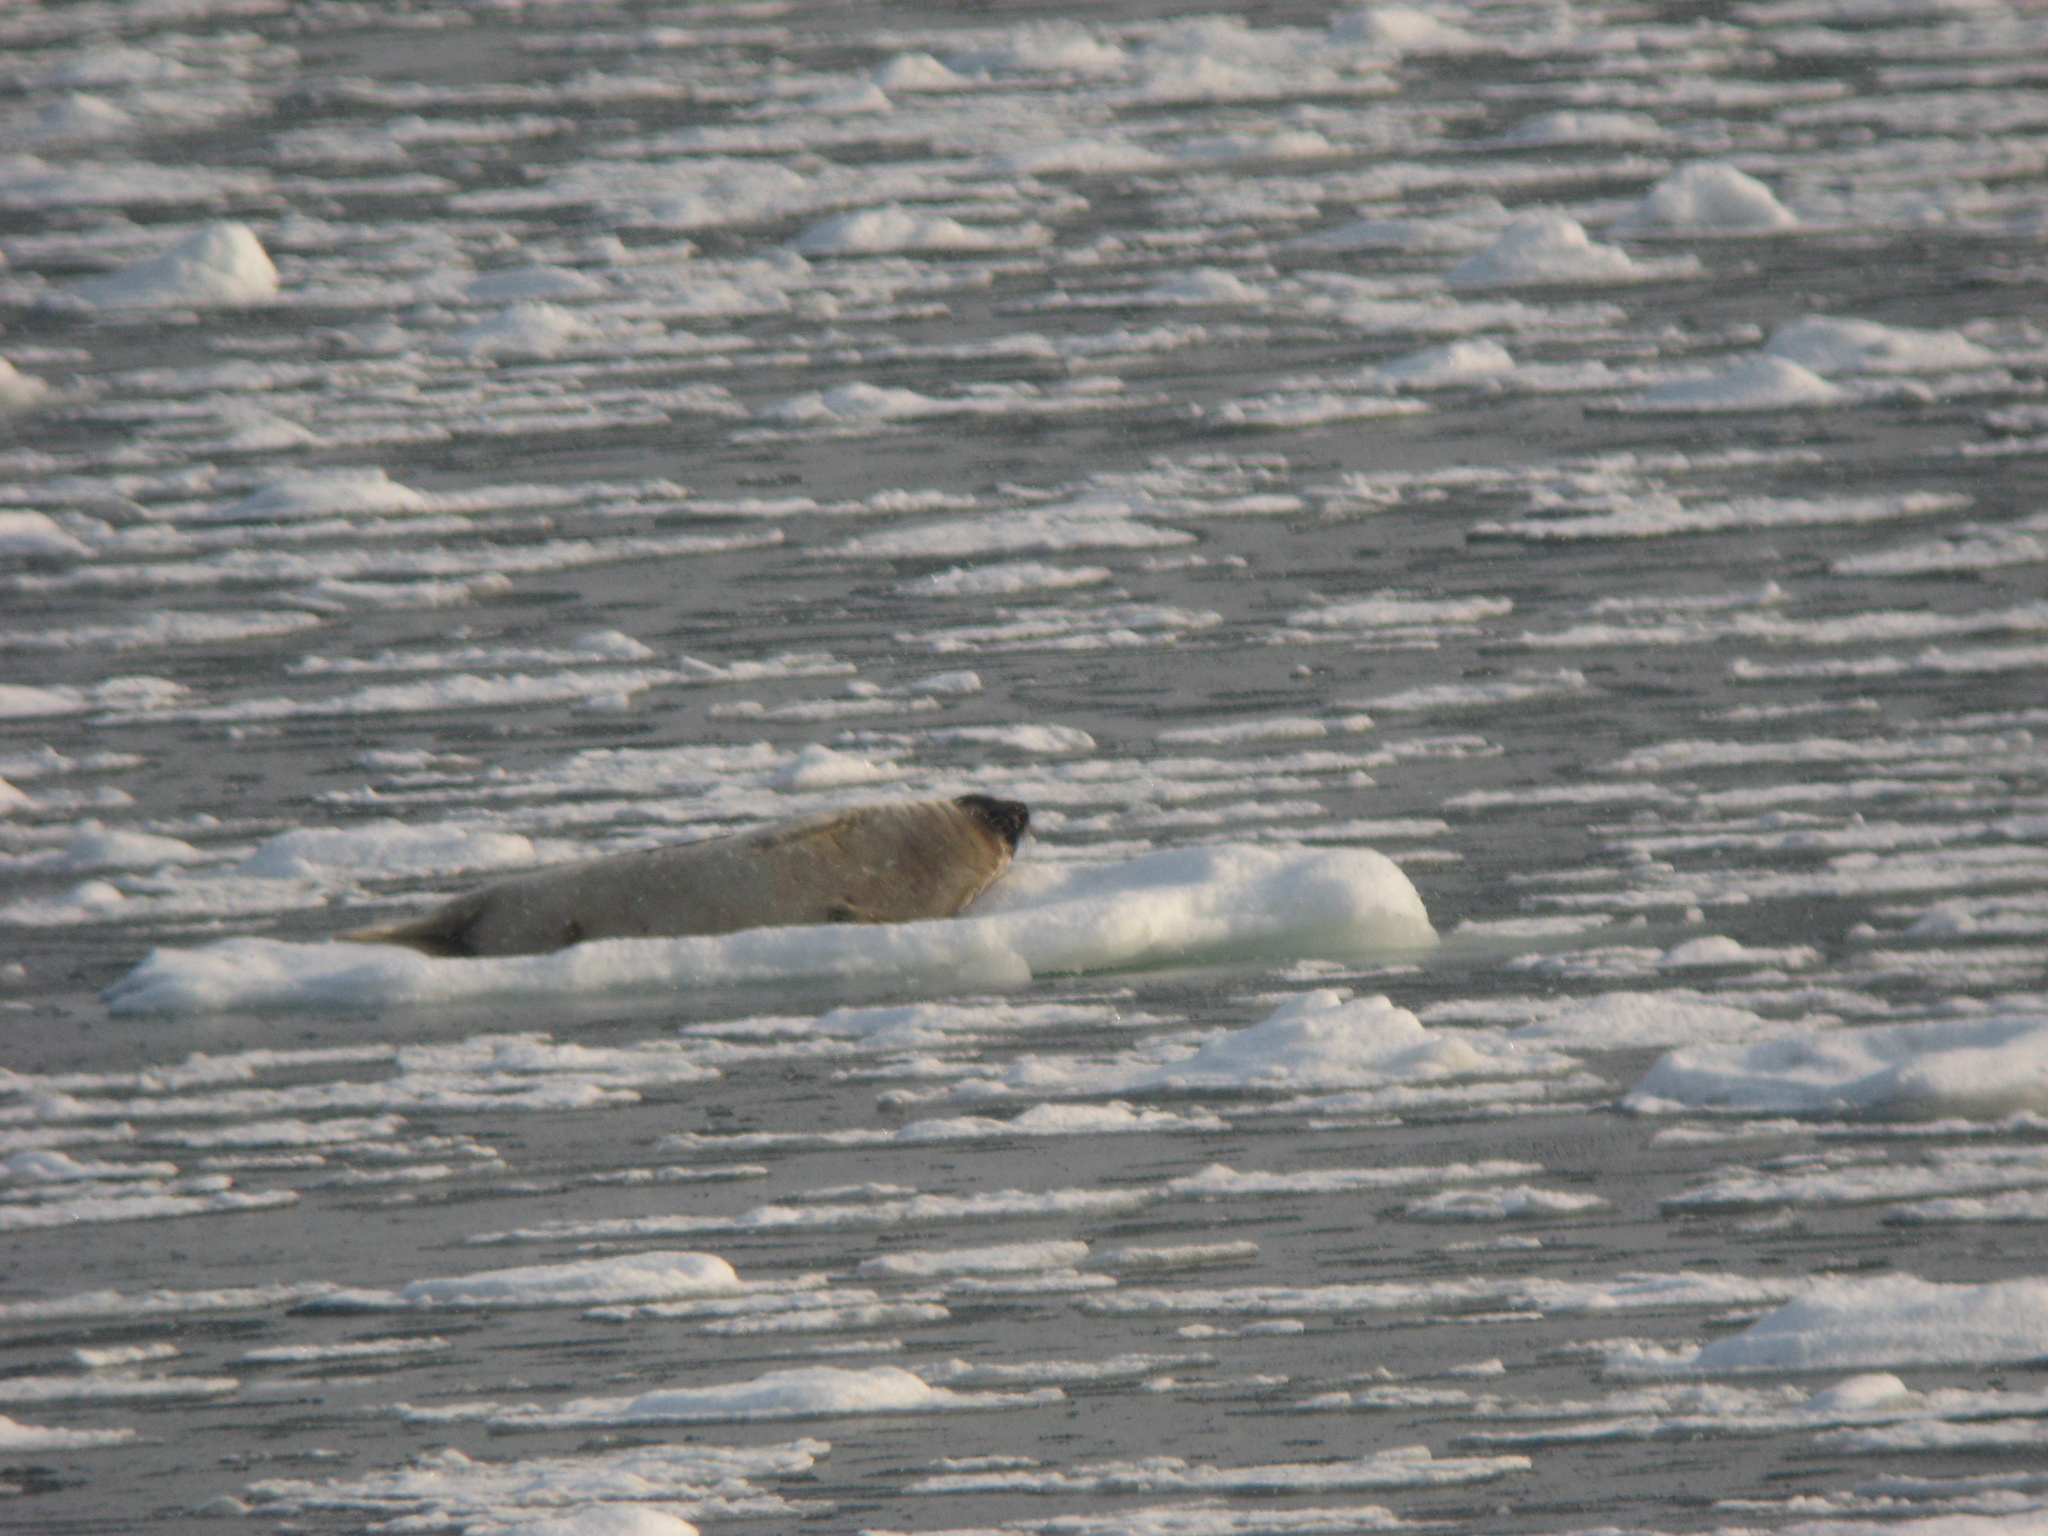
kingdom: Animalia
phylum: Chordata
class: Mammalia
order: Carnivora
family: Phocidae
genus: Pagophilus
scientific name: Pagophilus groenlandicus
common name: Harp seal
